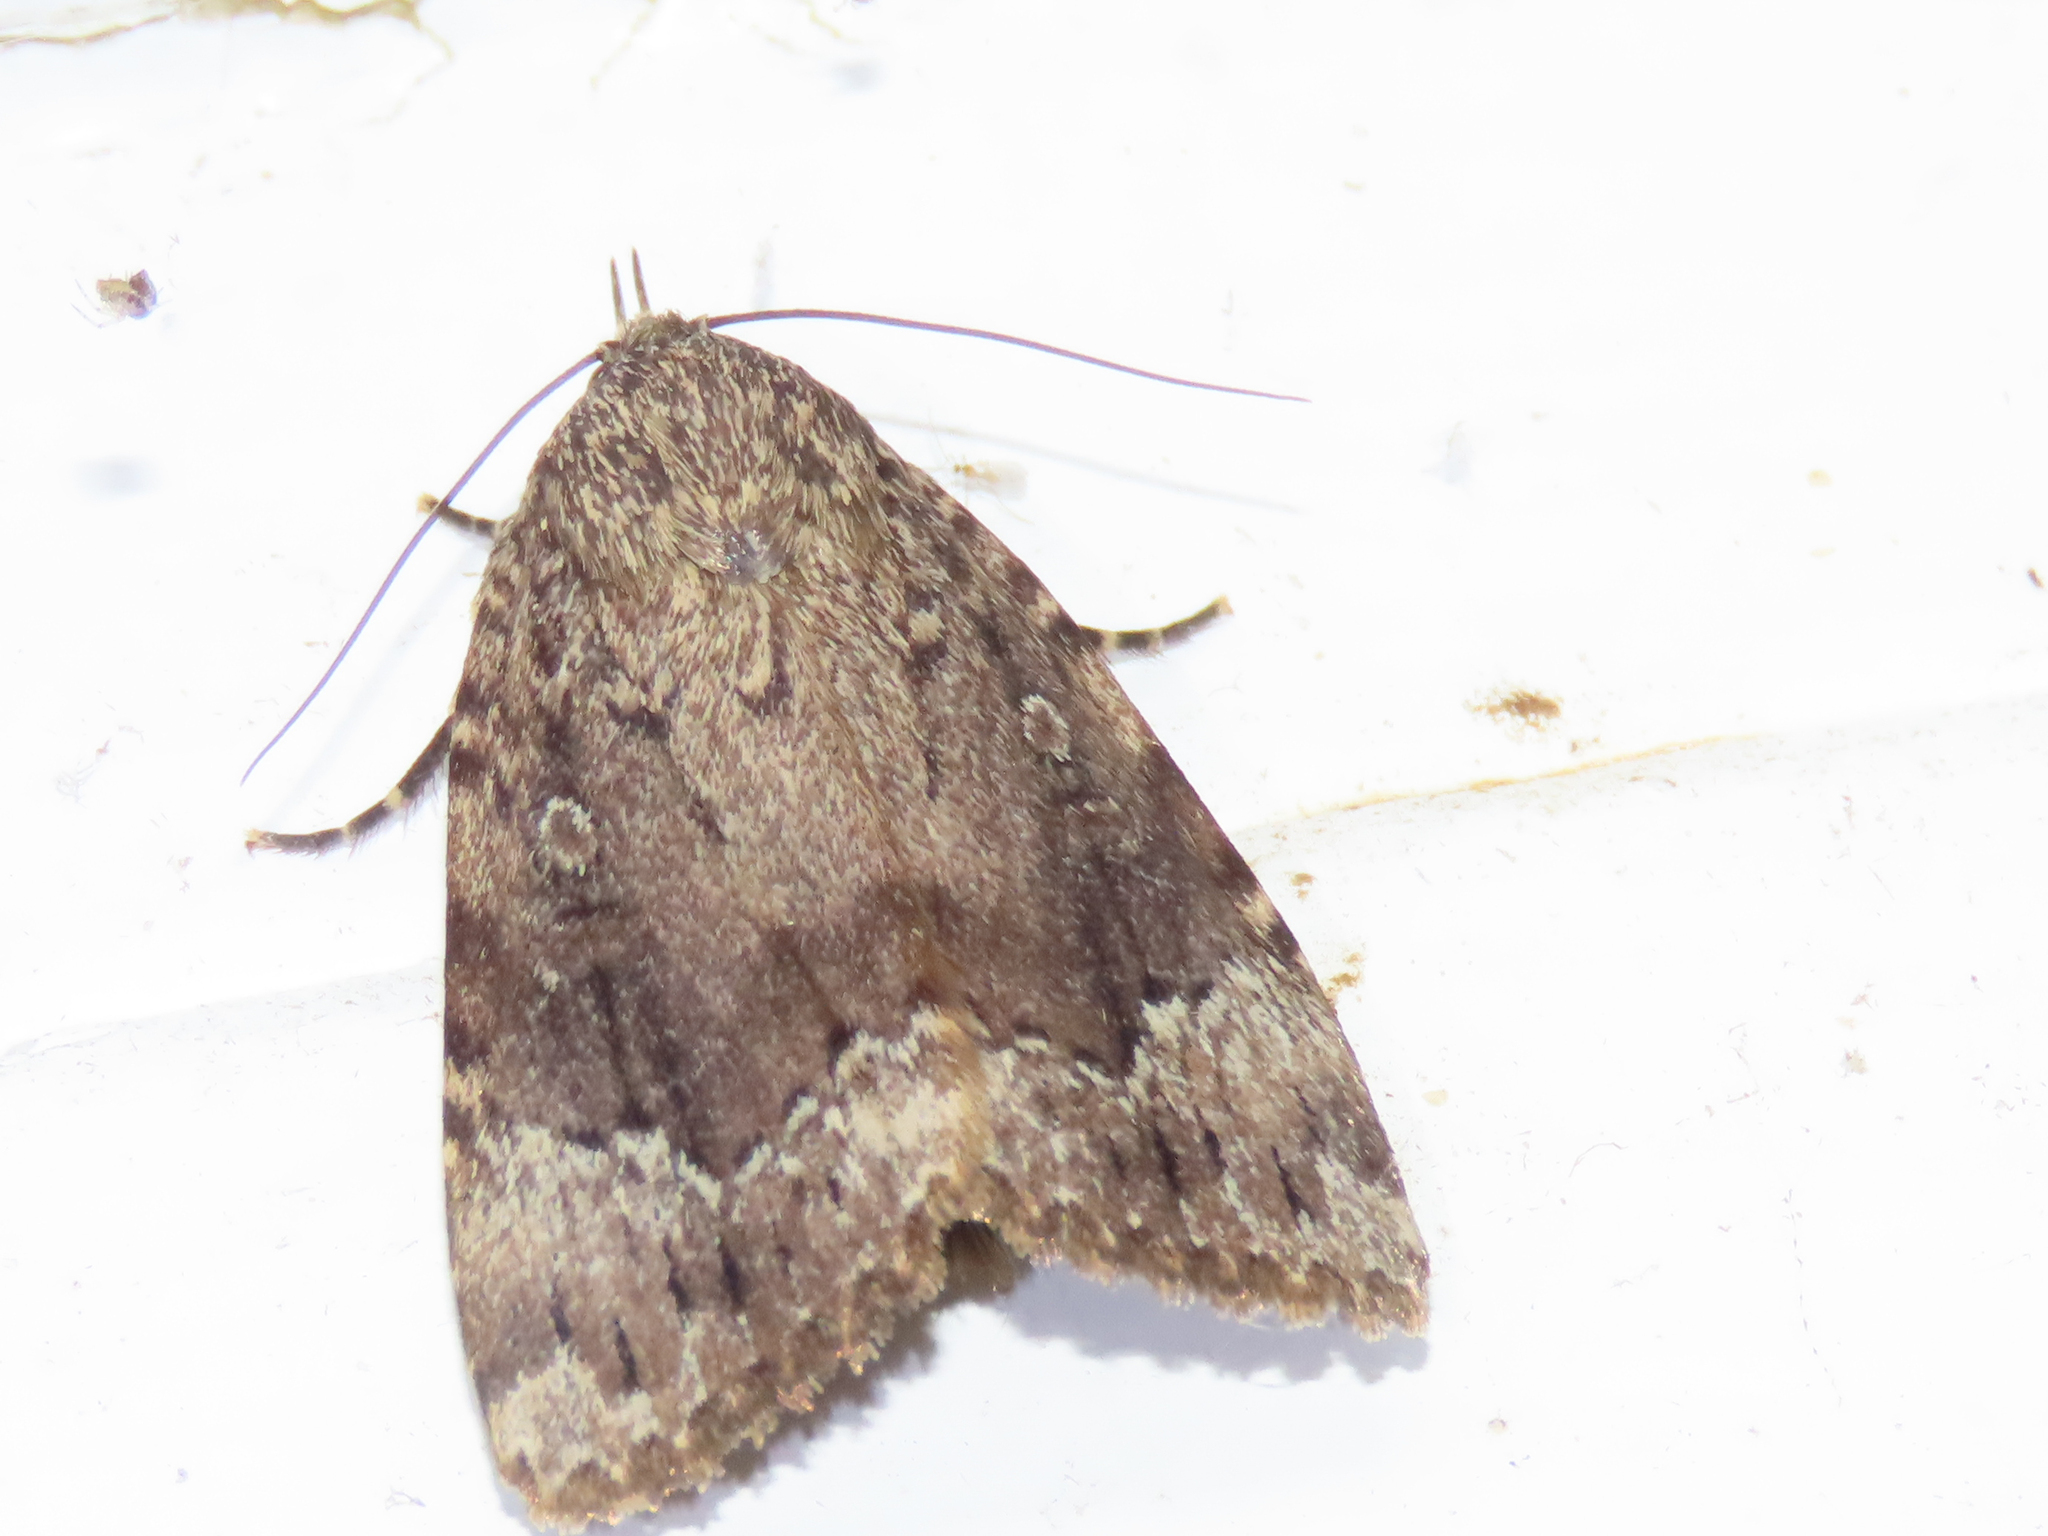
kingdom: Animalia
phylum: Arthropoda
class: Insecta
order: Lepidoptera
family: Noctuidae
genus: Amphipyra
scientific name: Amphipyra pyramidoides
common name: American copper underwing
